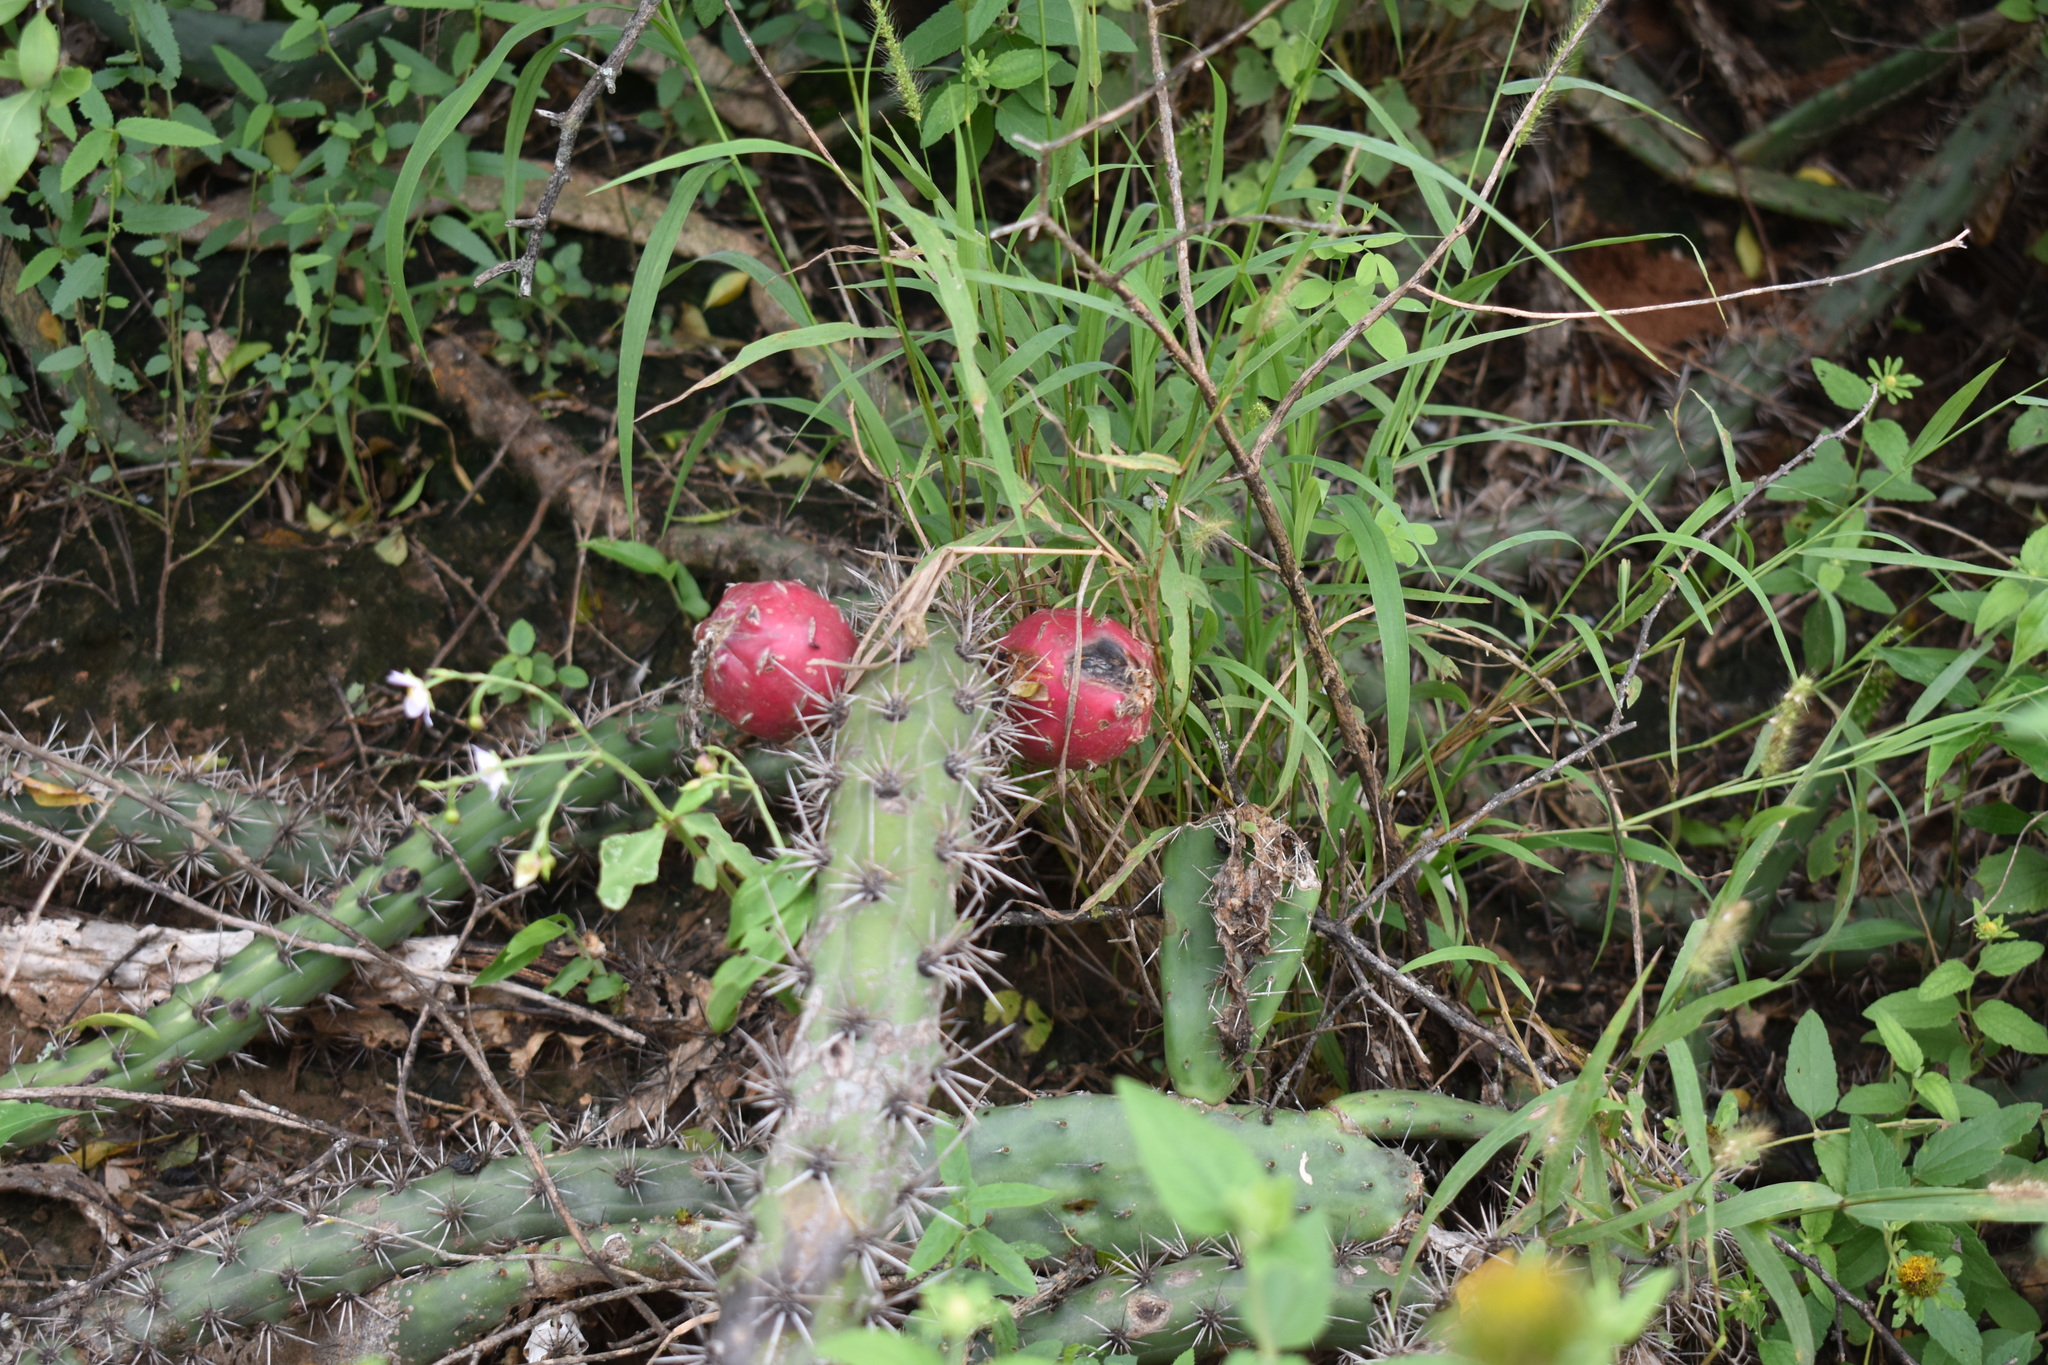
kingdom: Plantae
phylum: Tracheophyta
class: Magnoliopsida
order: Caryophyllales
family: Cactaceae
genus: Harrisia
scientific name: Harrisia pomanensis
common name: Midnight-lady
